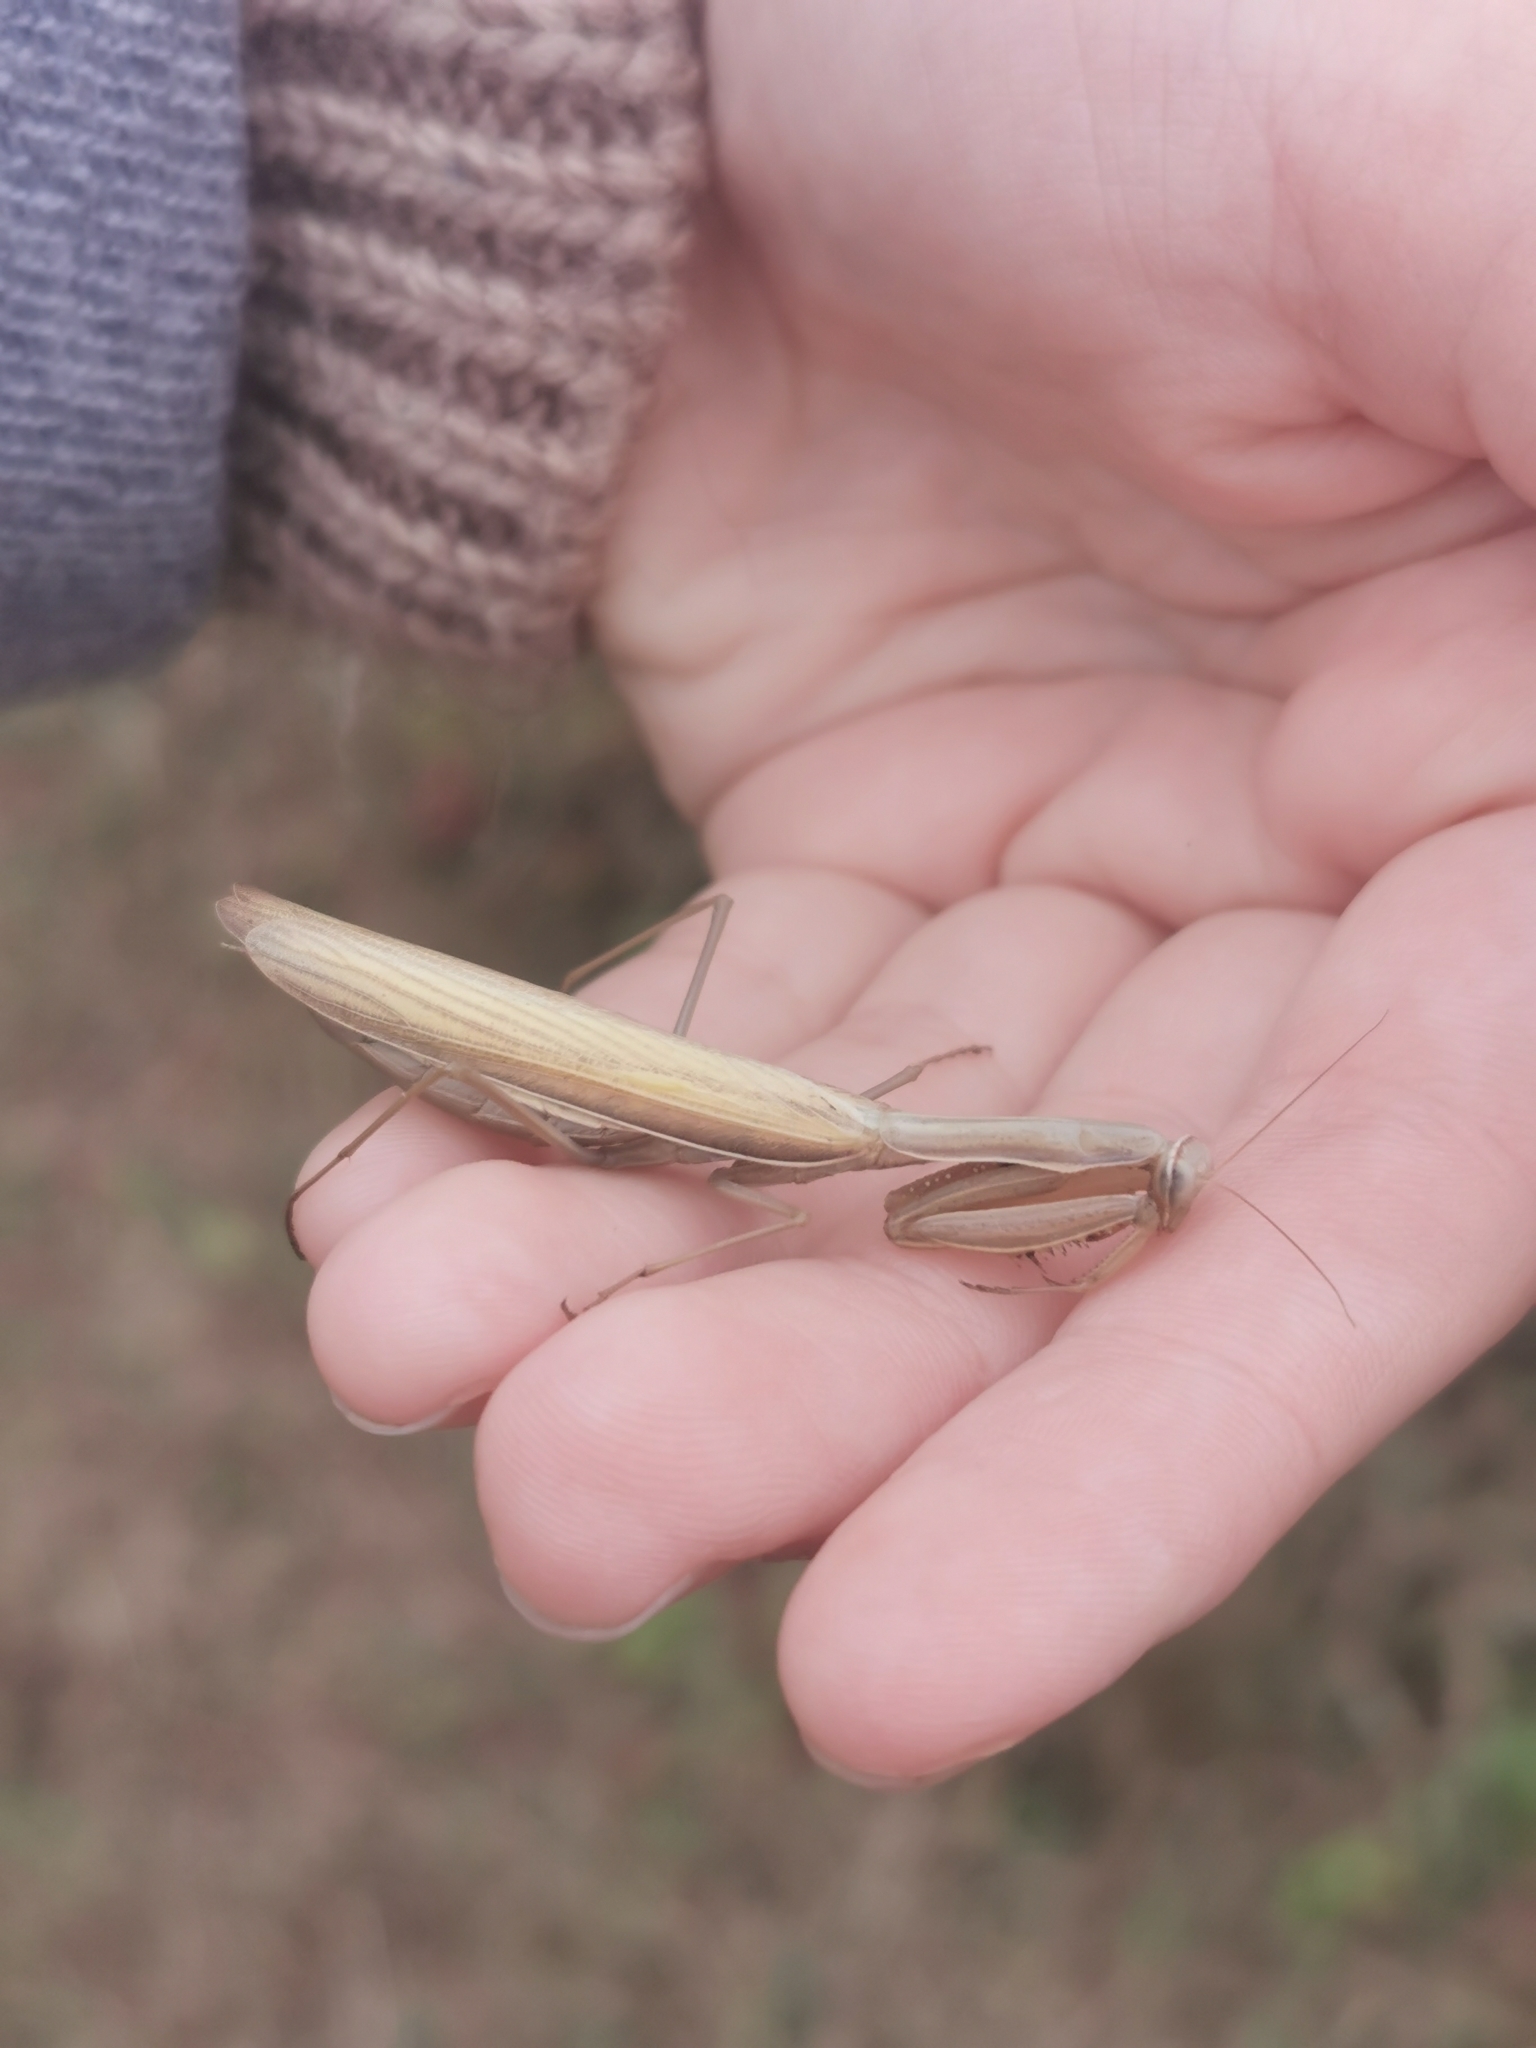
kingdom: Animalia
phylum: Arthropoda
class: Insecta
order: Mantodea
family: Mantidae
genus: Mantis
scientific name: Mantis religiosa
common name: Praying mantis
